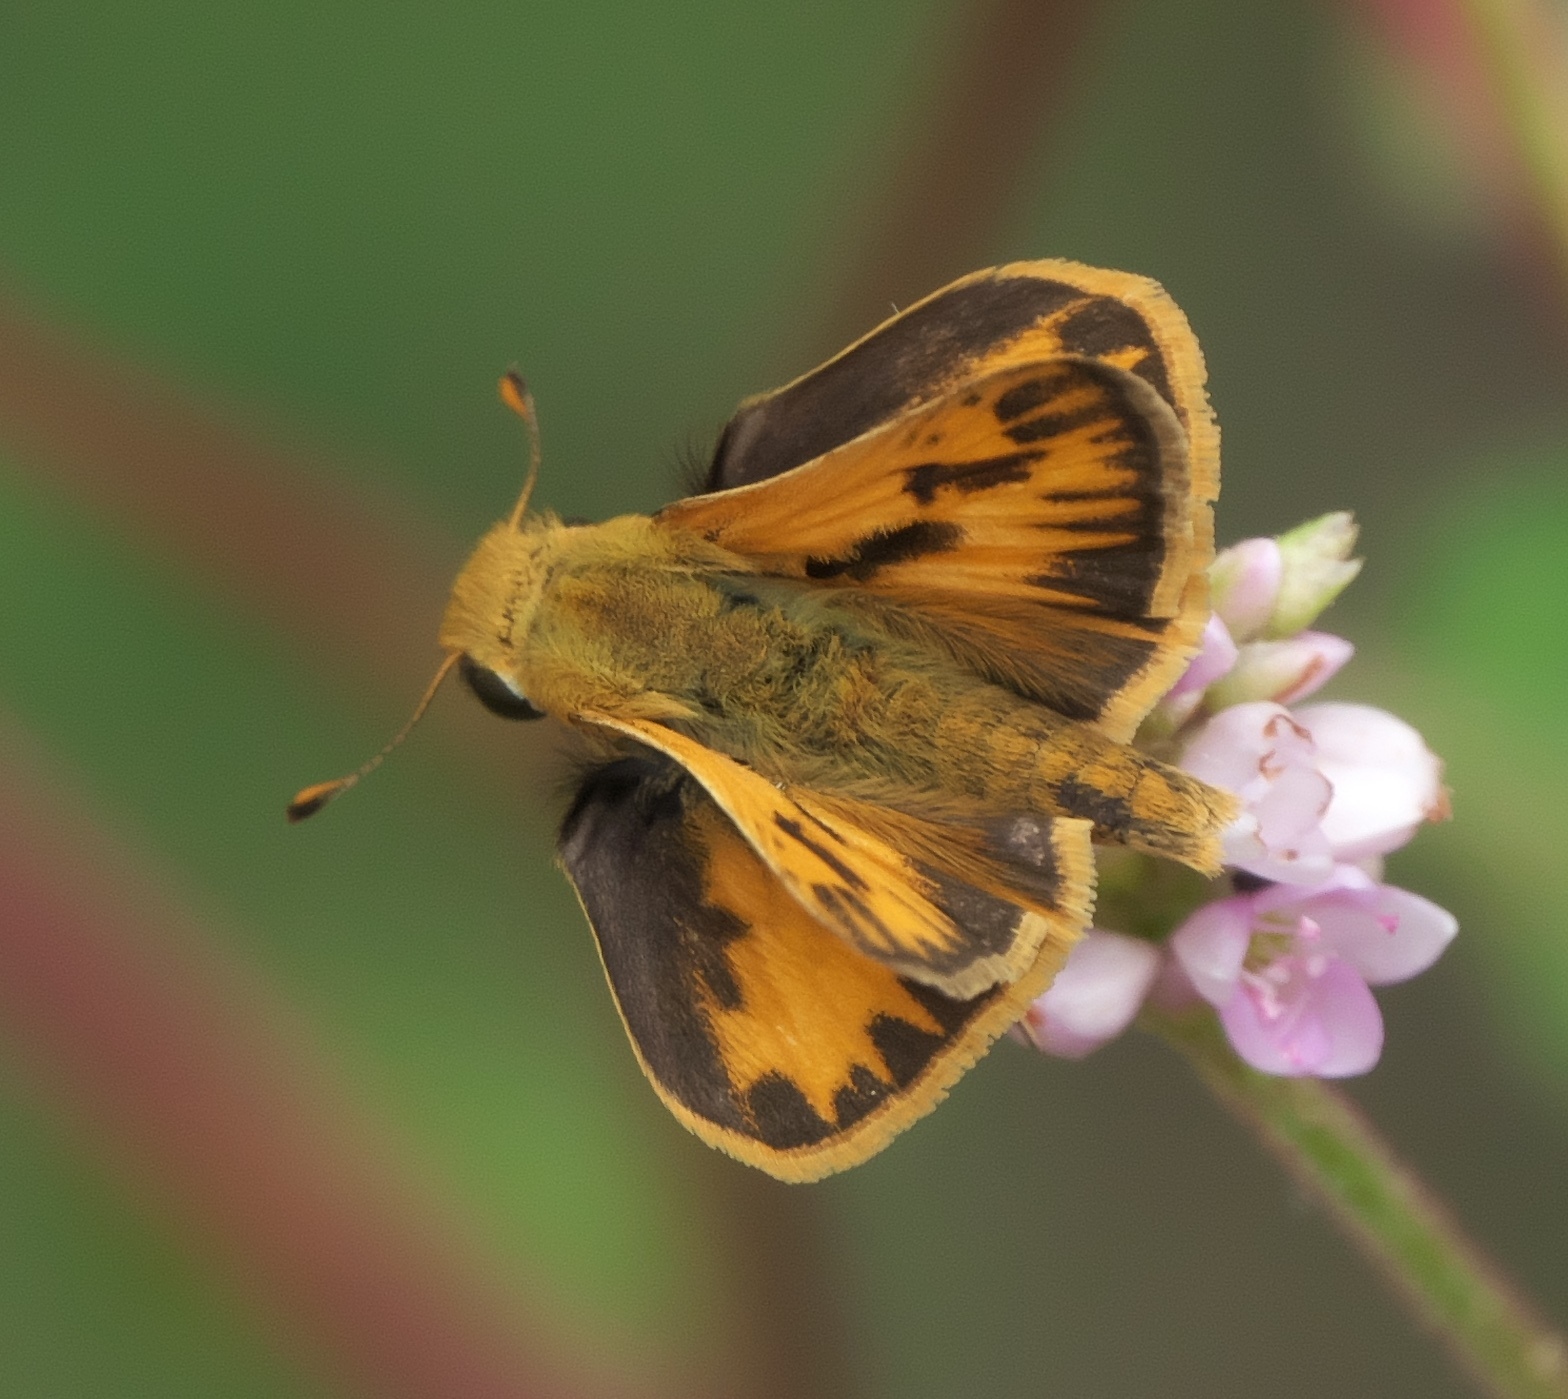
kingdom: Animalia
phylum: Arthropoda
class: Insecta
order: Lepidoptera
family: Hesperiidae
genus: Hylephila
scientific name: Hylephila phyleus
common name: Fiery skipper
